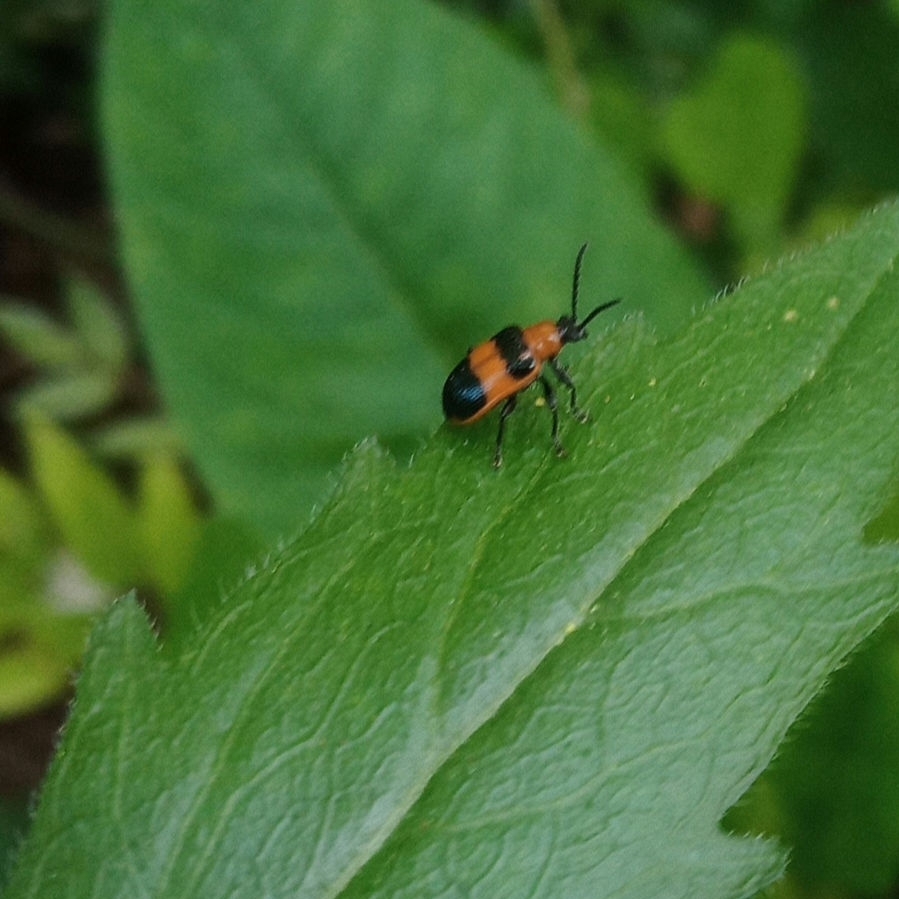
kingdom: Animalia
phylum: Arthropoda
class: Insecta
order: Coleoptera
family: Chrysomelidae
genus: Lema
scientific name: Lema solani
